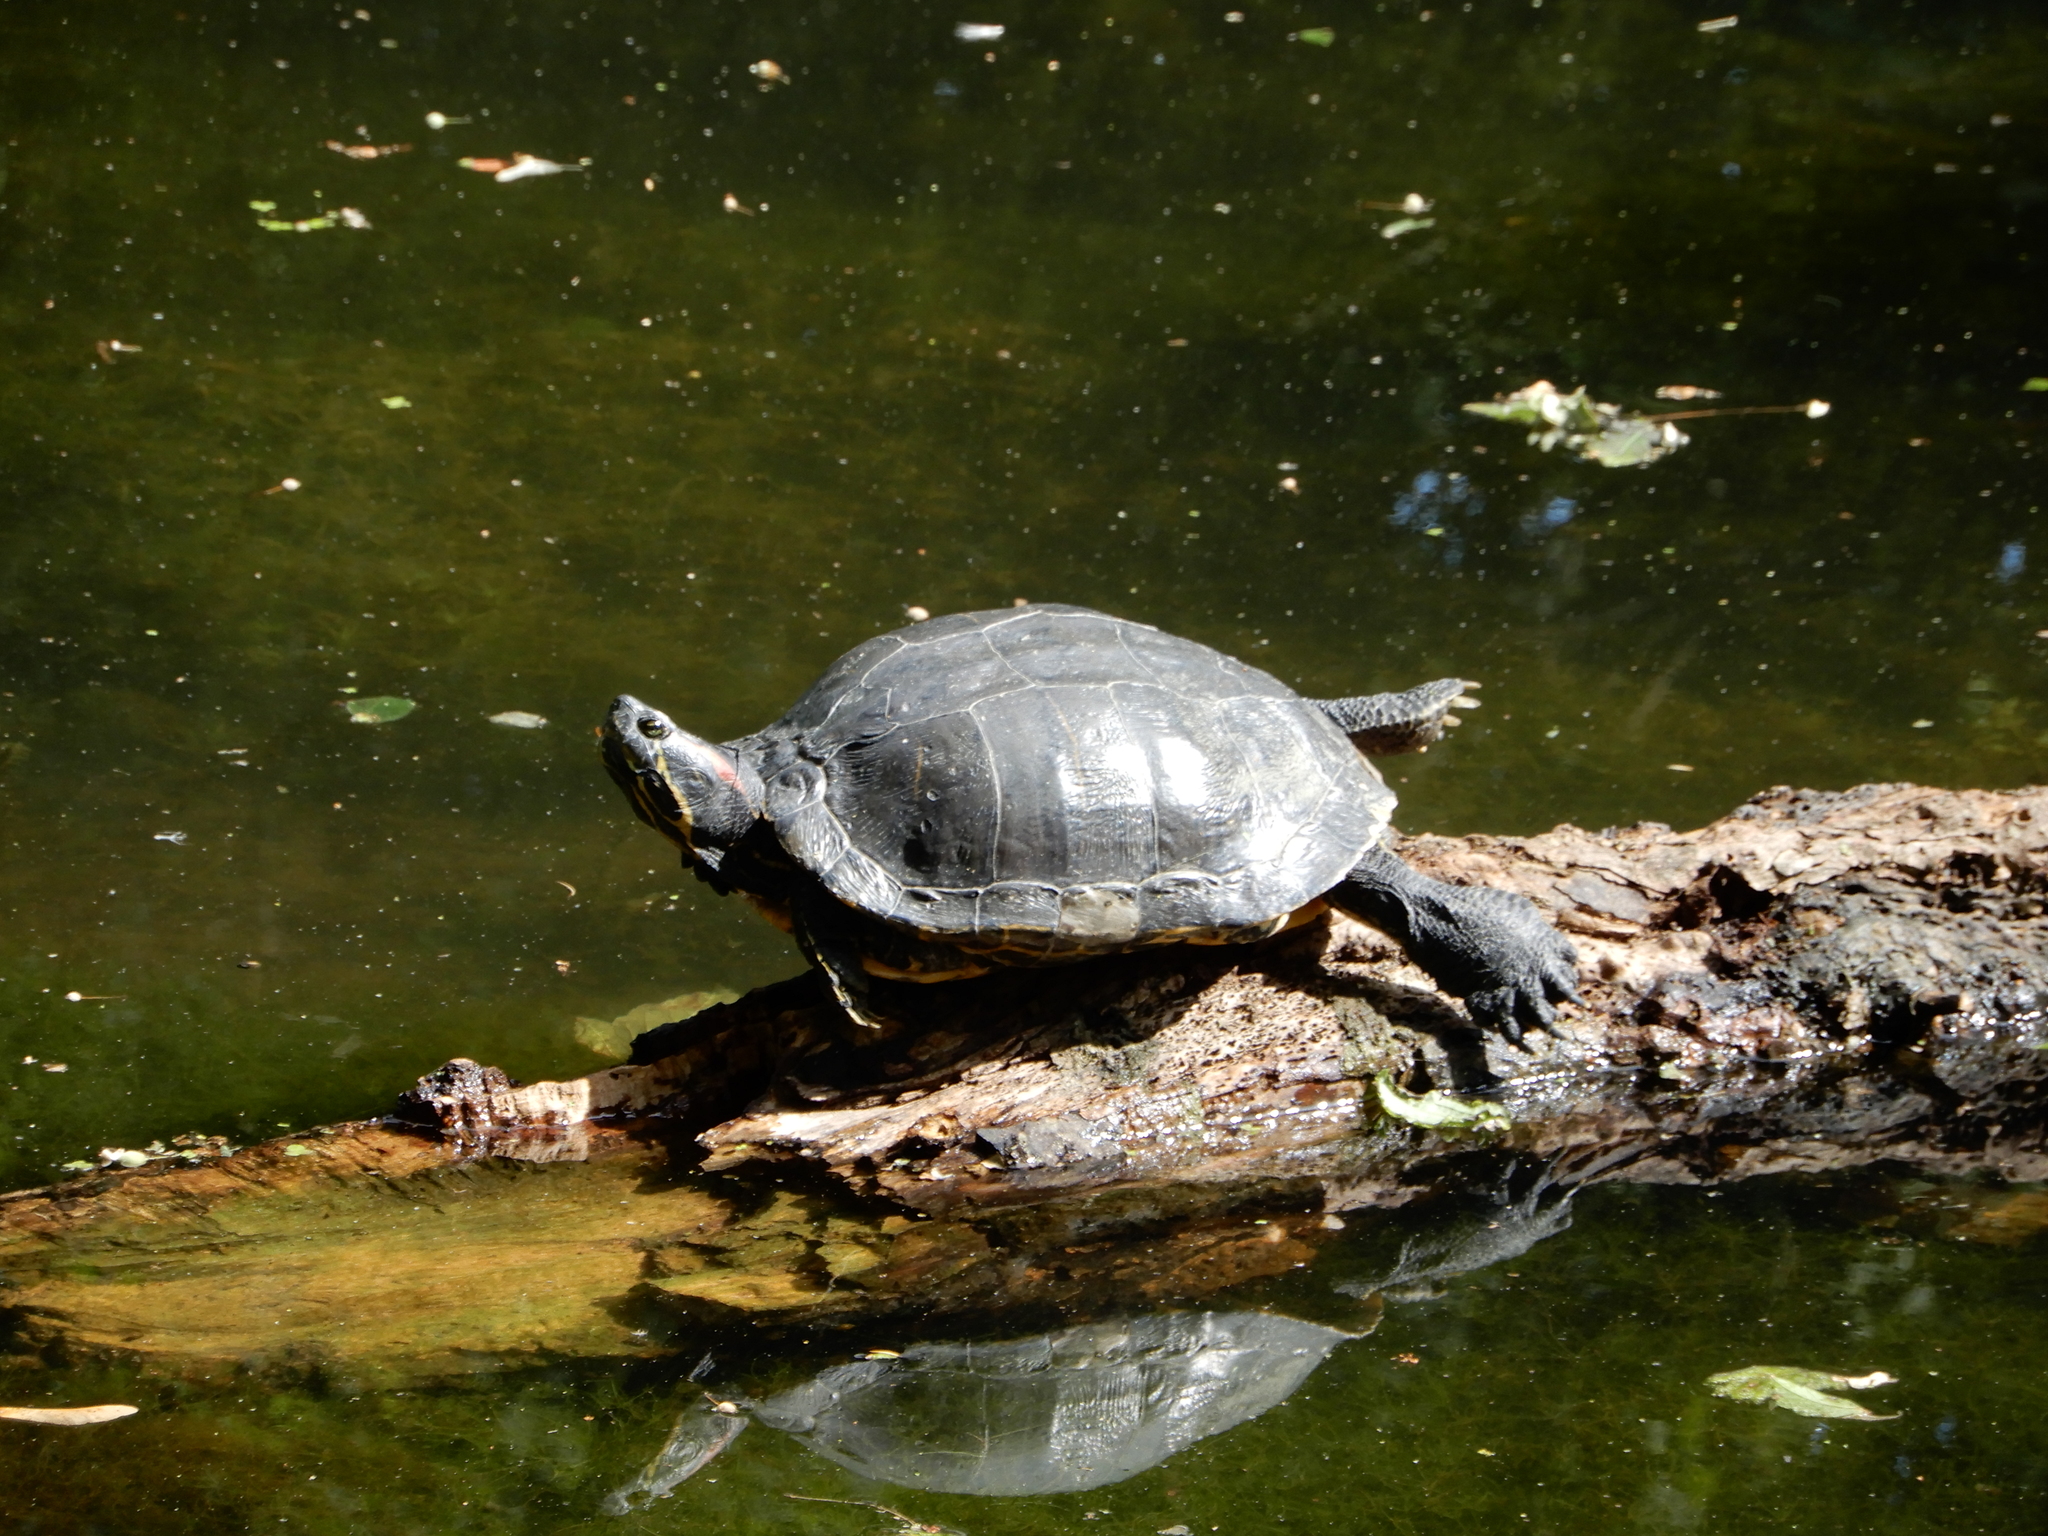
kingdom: Animalia
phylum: Chordata
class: Testudines
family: Emydidae
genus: Trachemys
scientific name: Trachemys scripta
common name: Slider
